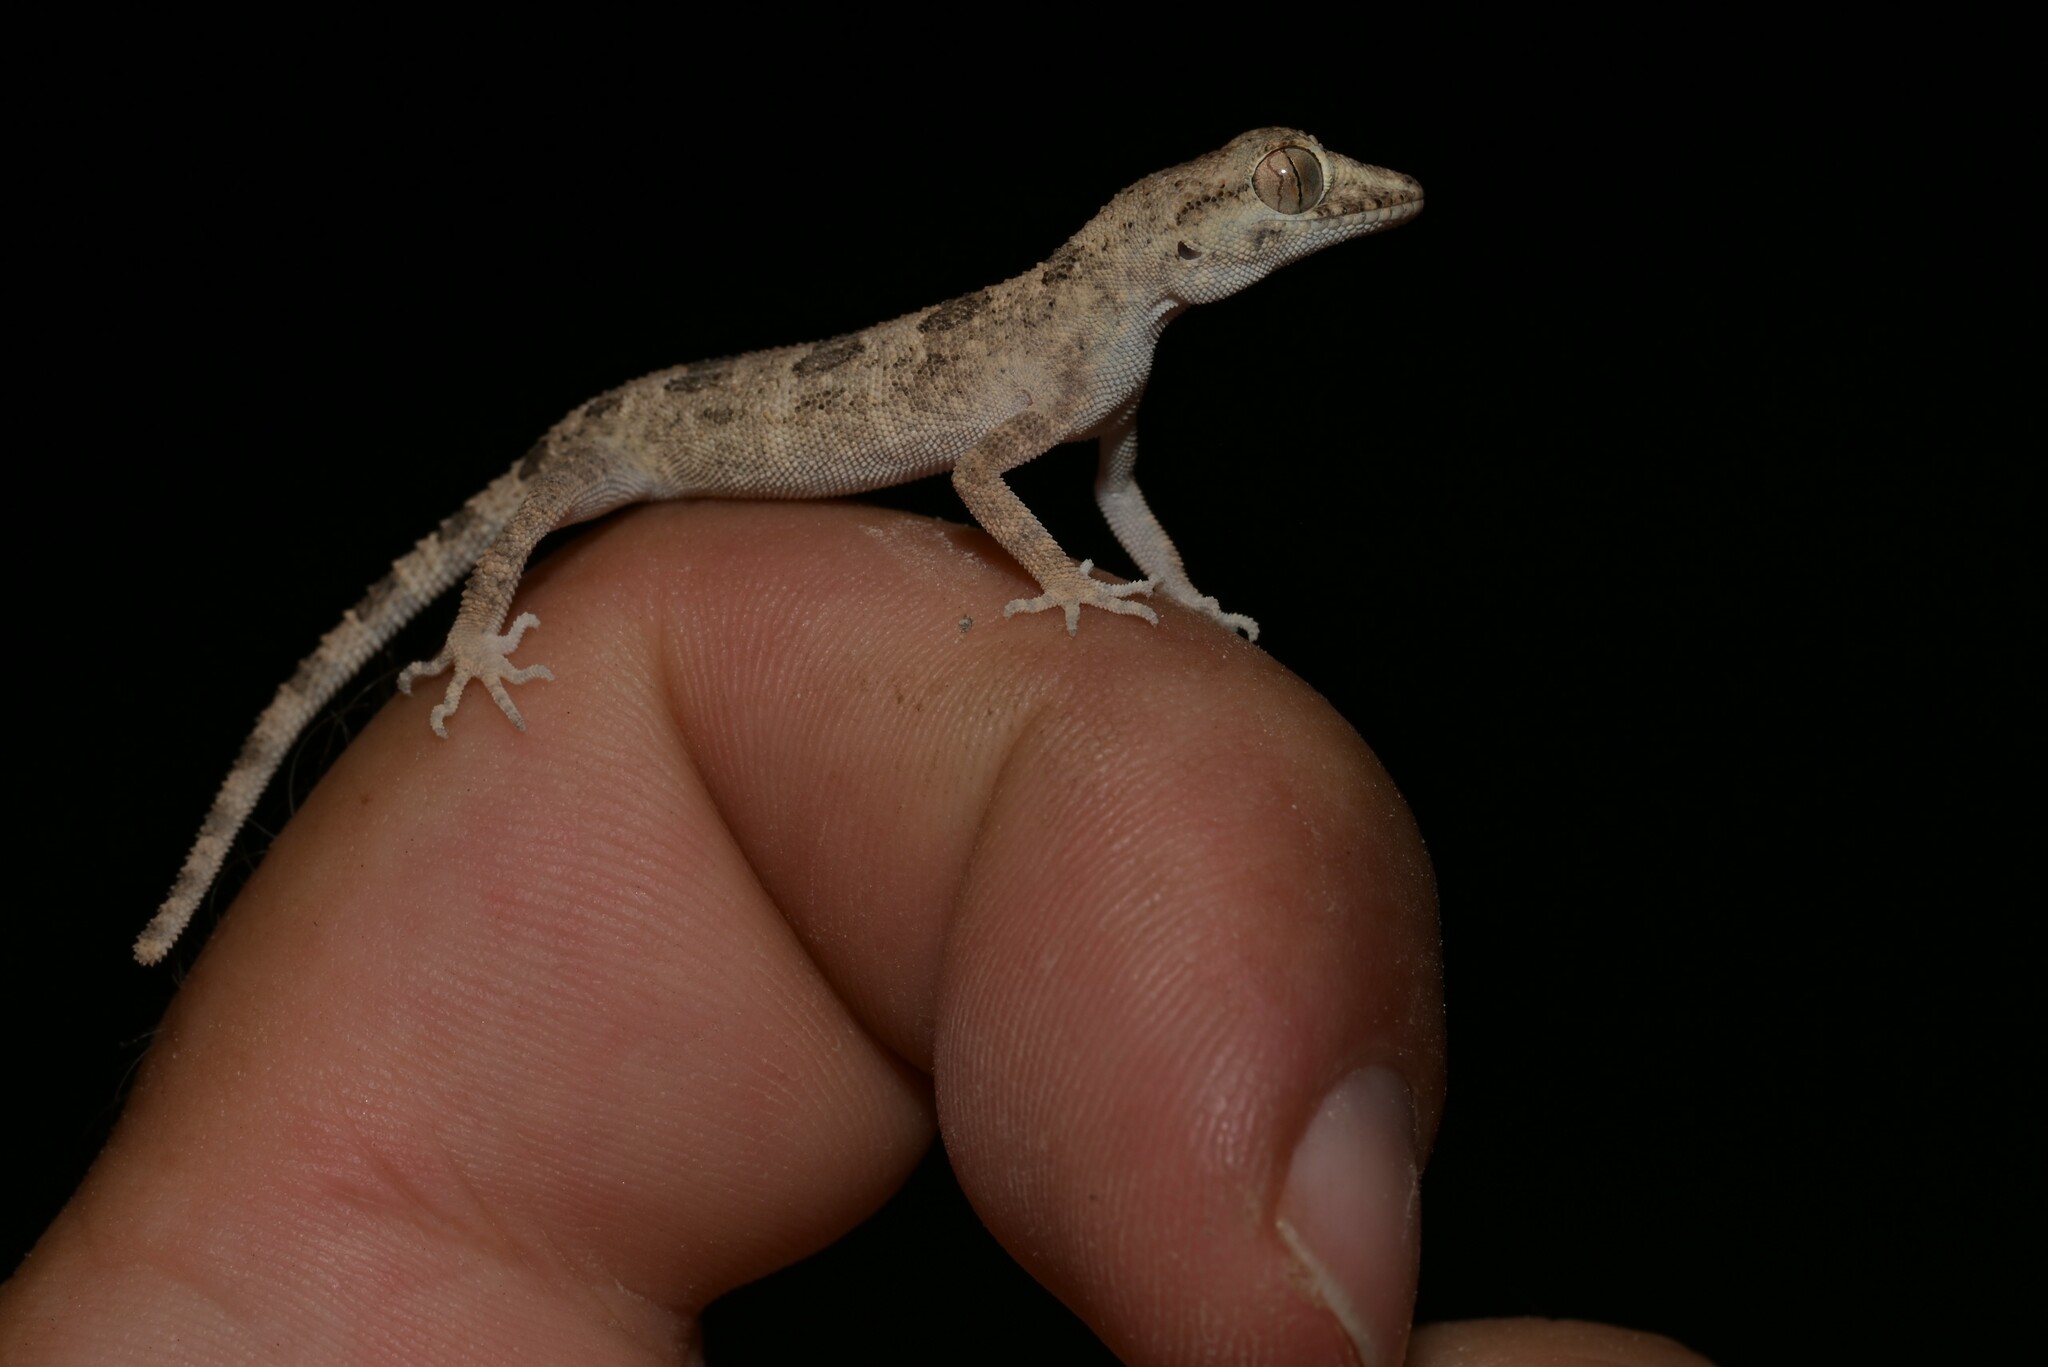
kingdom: Animalia
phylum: Chordata
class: Squamata
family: Gekkonidae
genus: Trachydactylus
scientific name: Trachydactylus hajarensis
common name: Banded rock gecko
